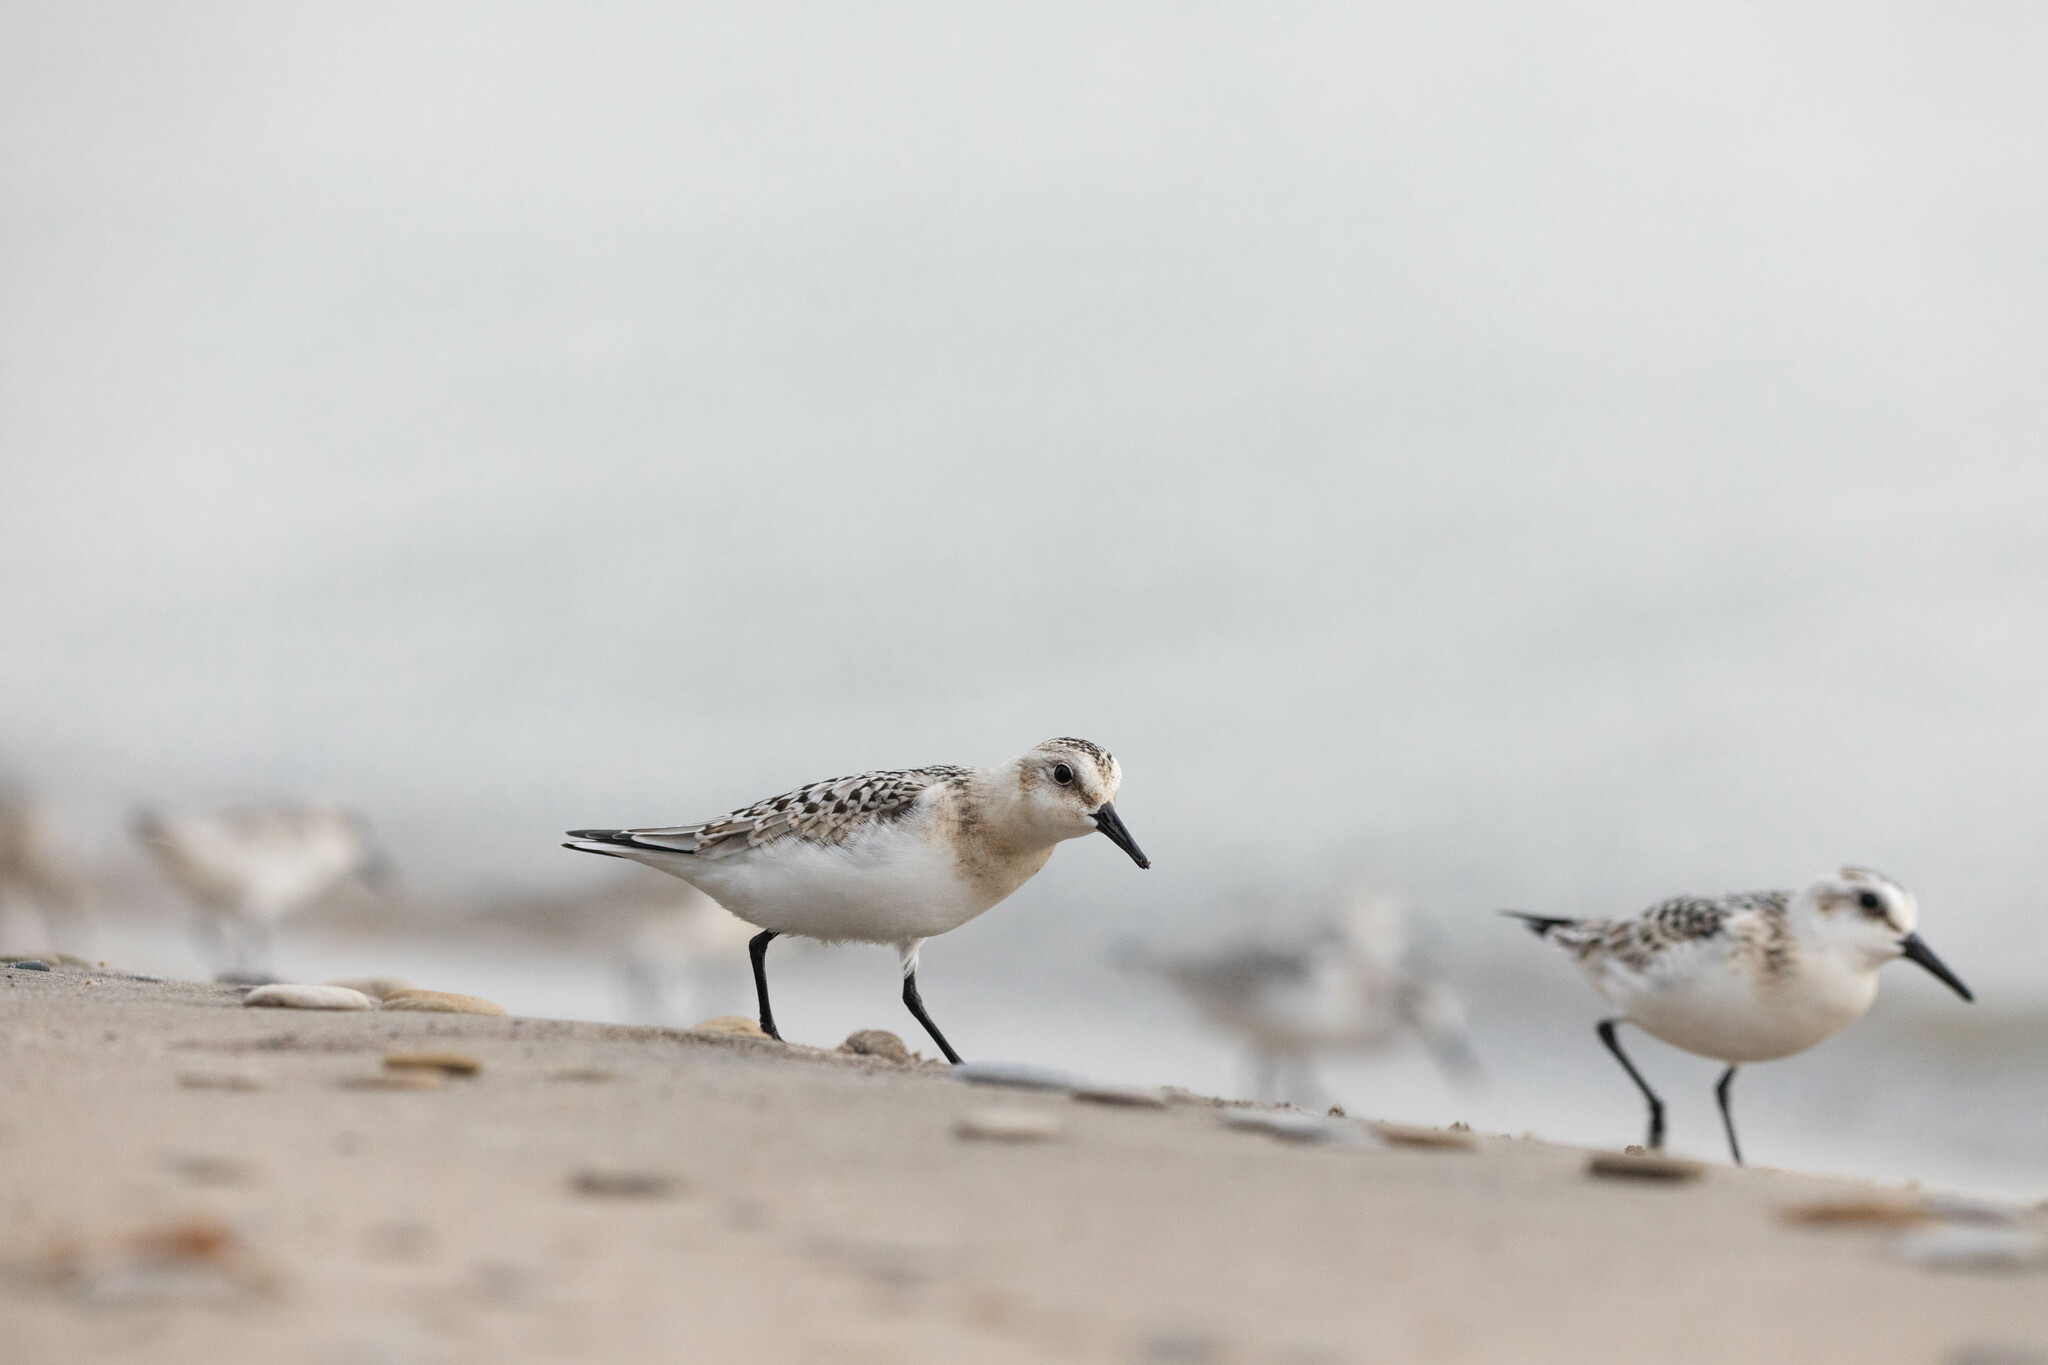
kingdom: Animalia
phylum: Chordata
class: Aves
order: Charadriiformes
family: Scolopacidae
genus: Calidris
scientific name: Calidris alba
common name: Sanderling
